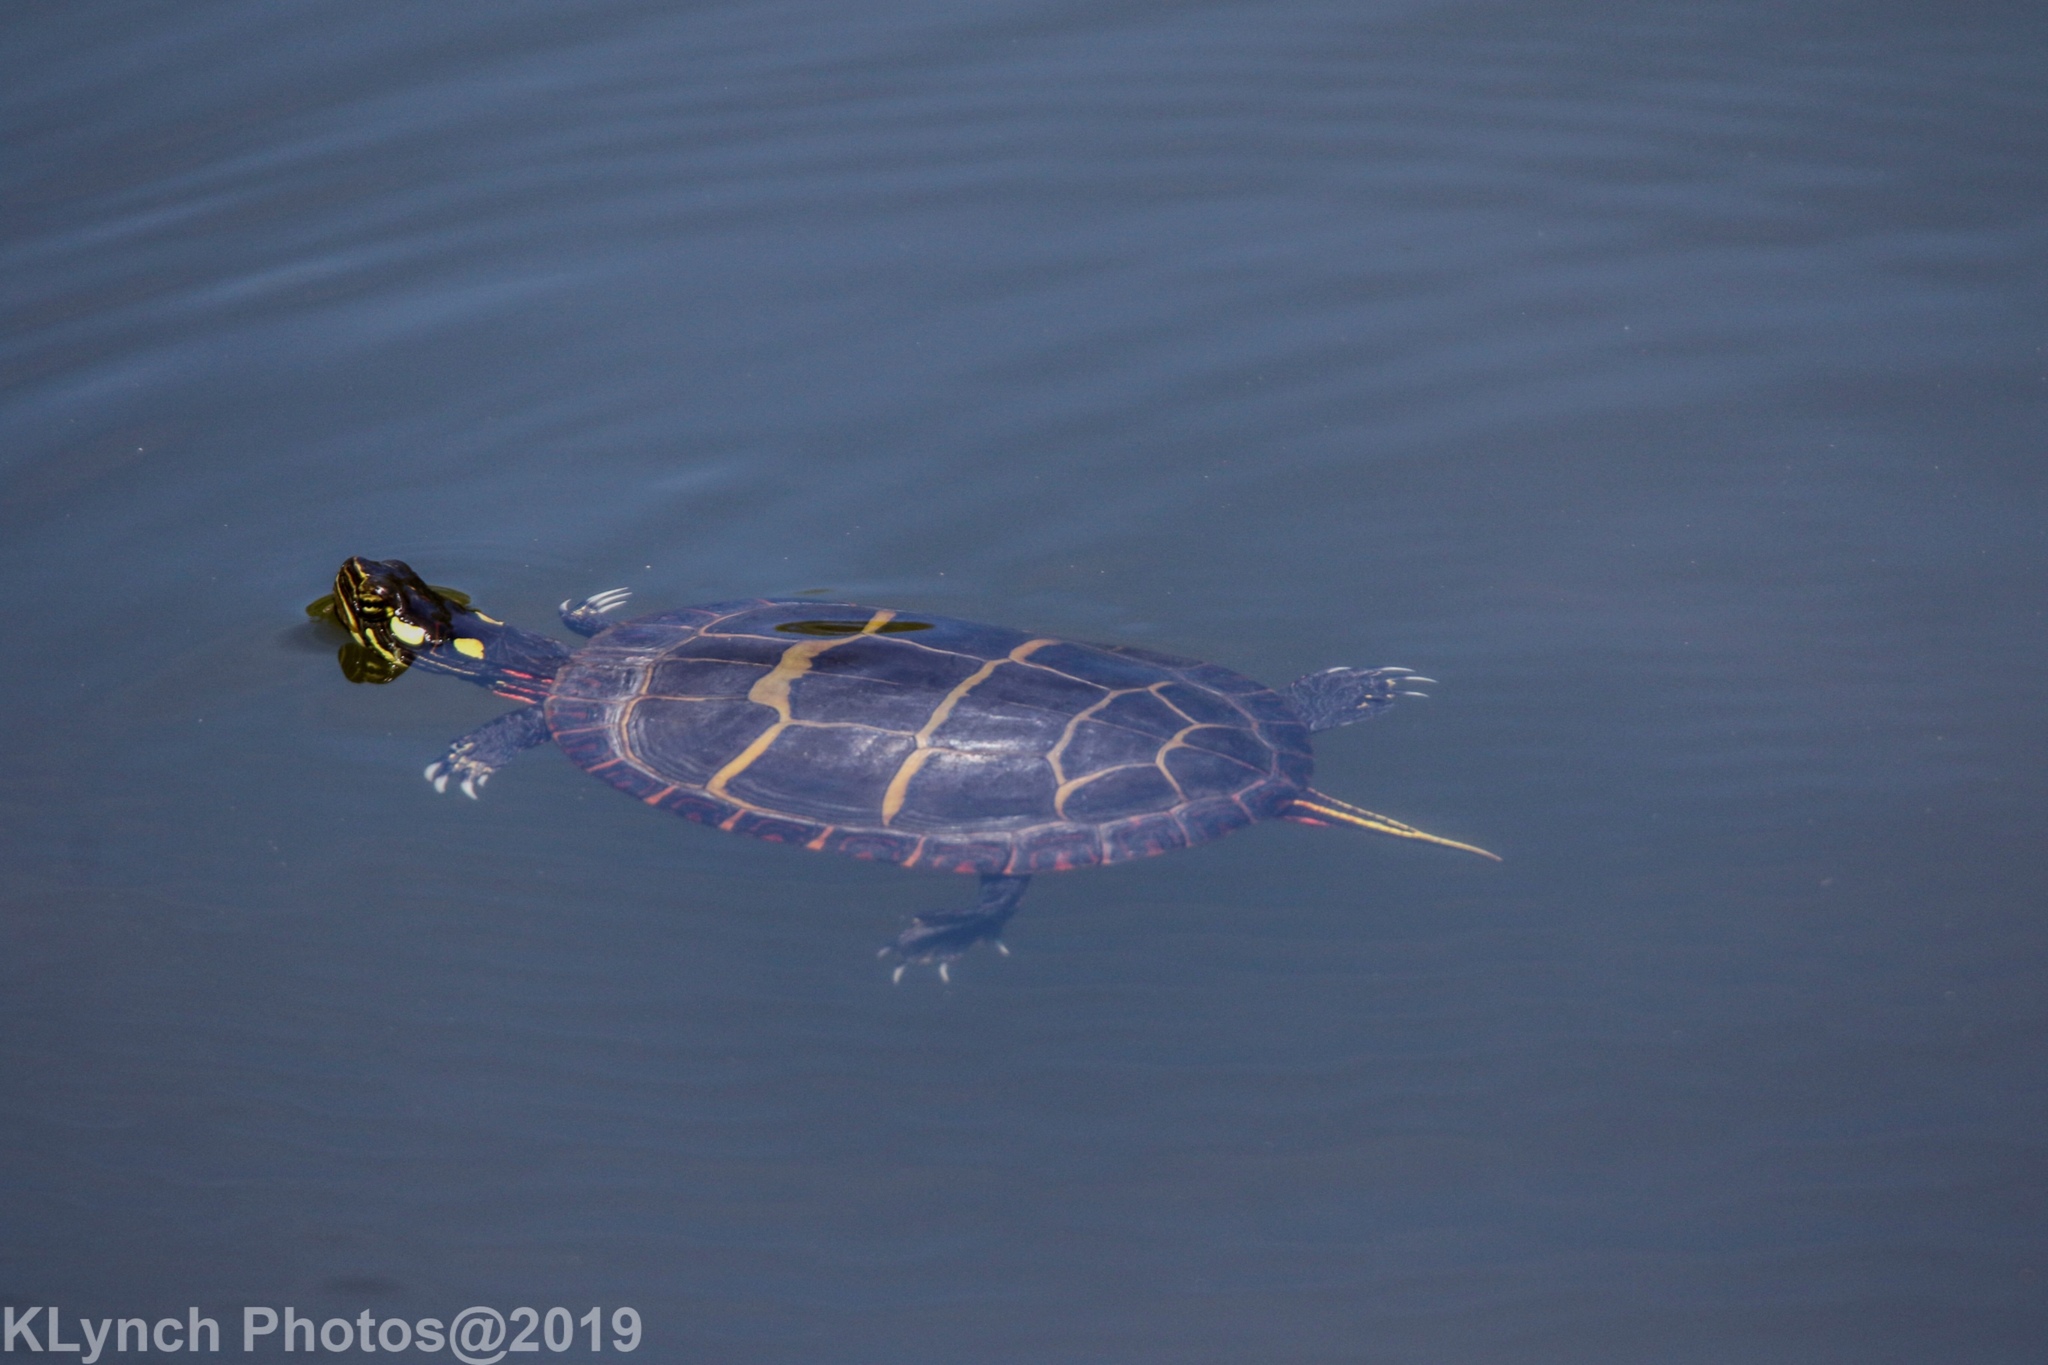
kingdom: Animalia
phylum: Chordata
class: Testudines
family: Emydidae
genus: Chrysemys
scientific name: Chrysemys picta
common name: Painted turtle
